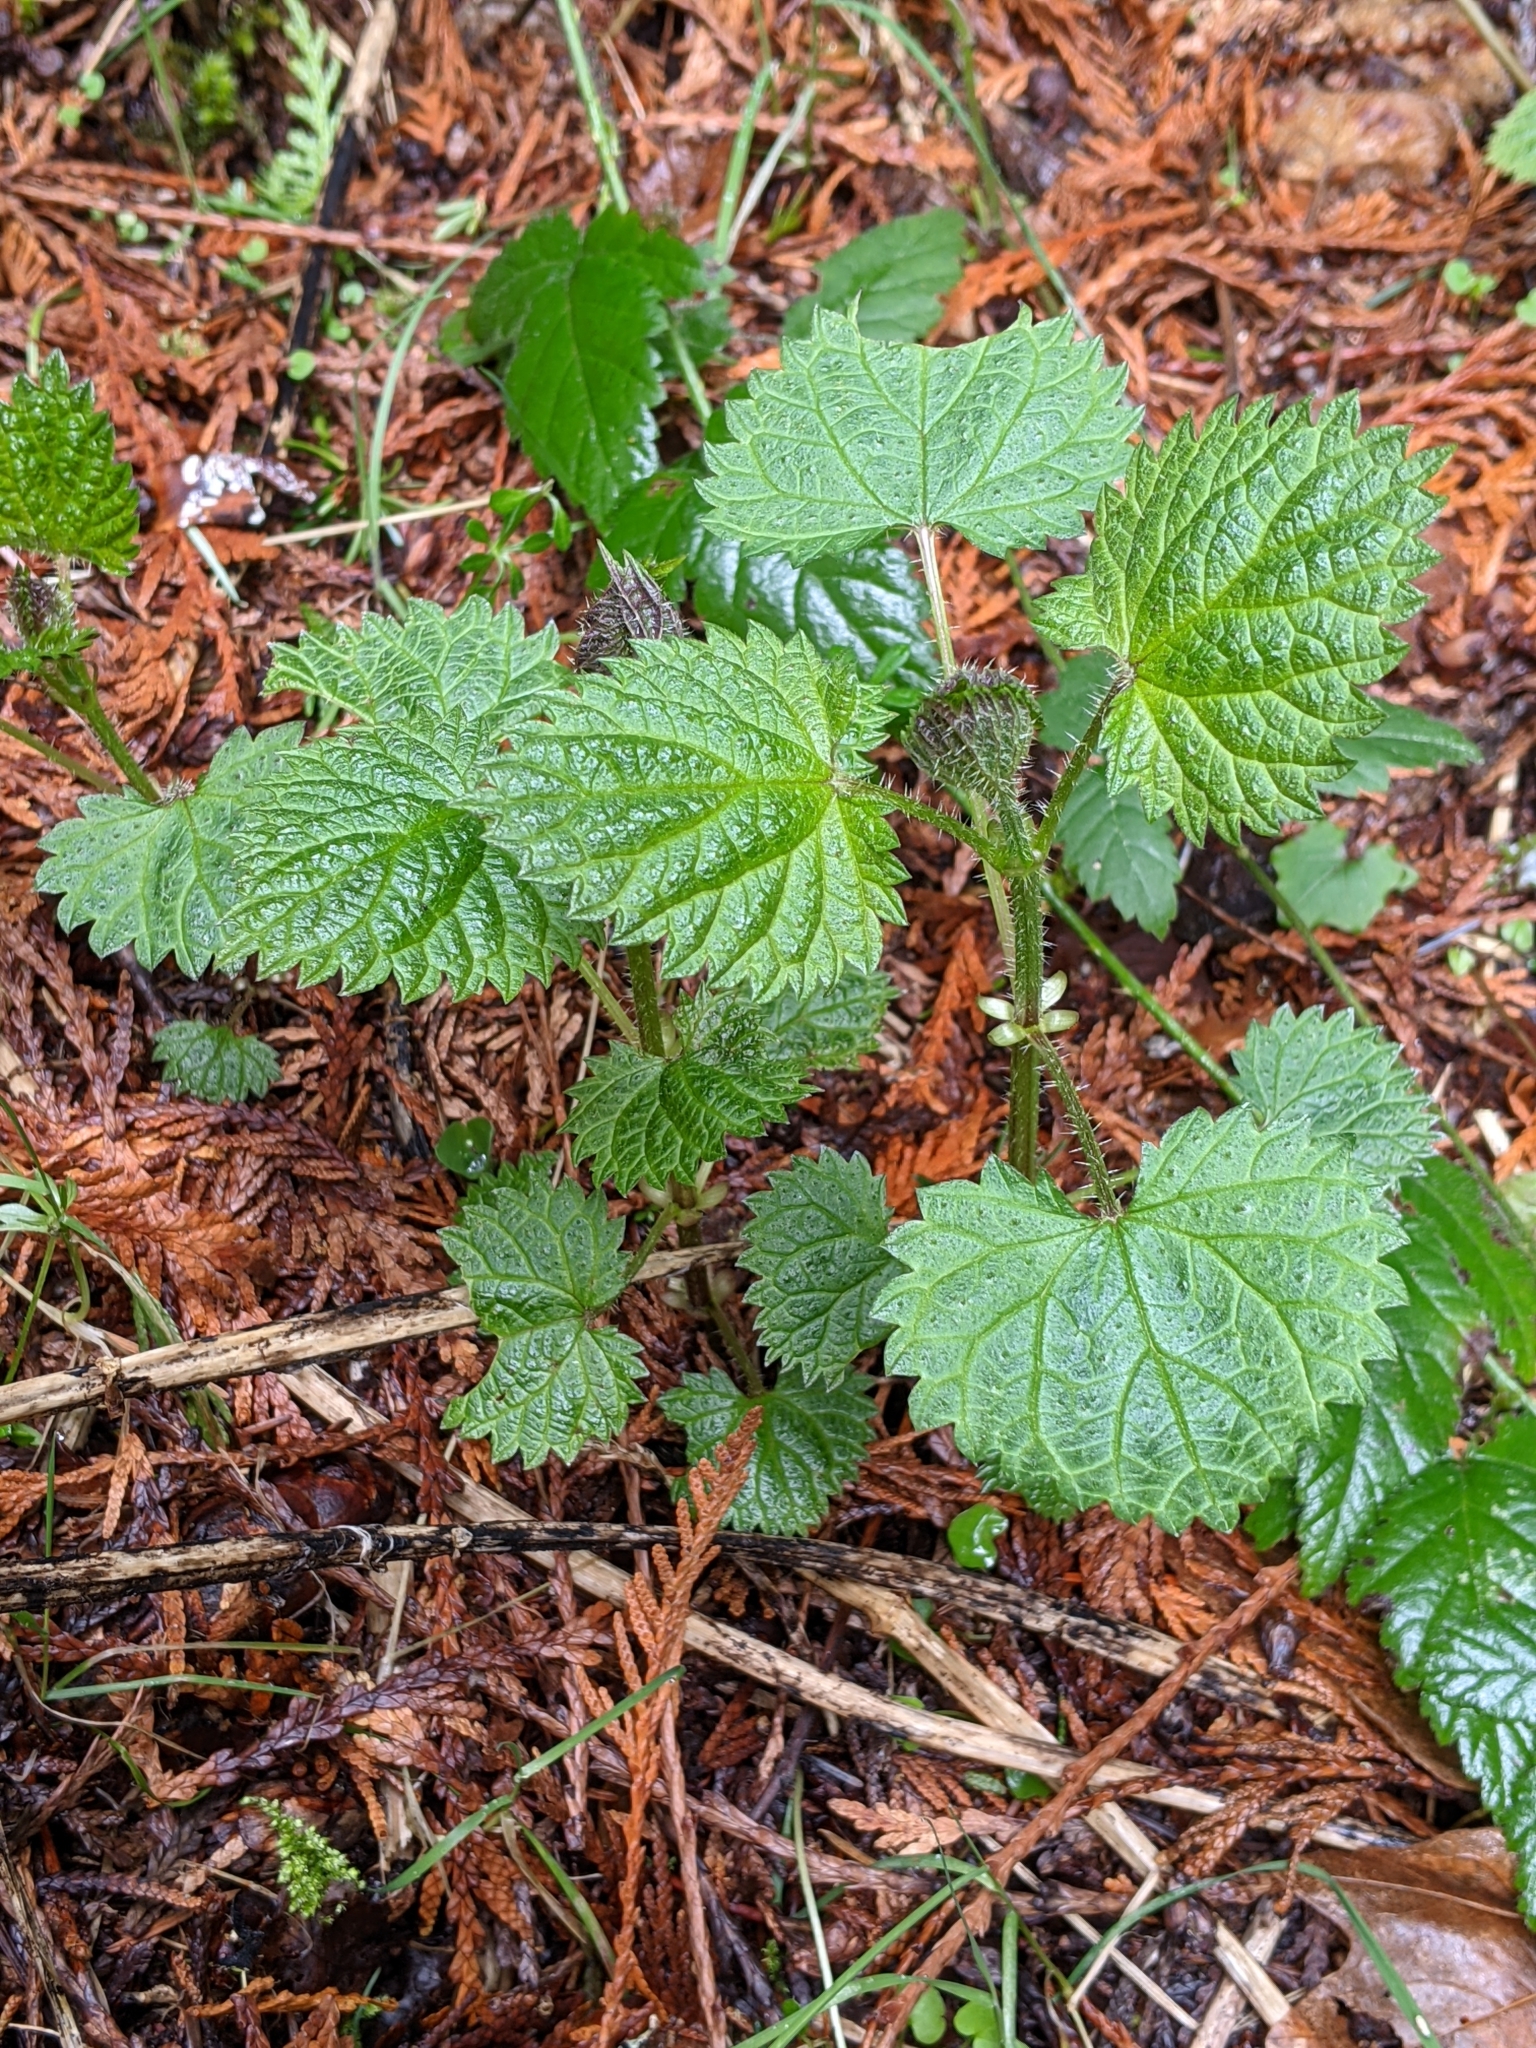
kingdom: Plantae
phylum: Tracheophyta
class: Magnoliopsida
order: Rosales
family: Urticaceae
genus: Urtica
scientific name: Urtica gracilis
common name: Slender stinging nettle
